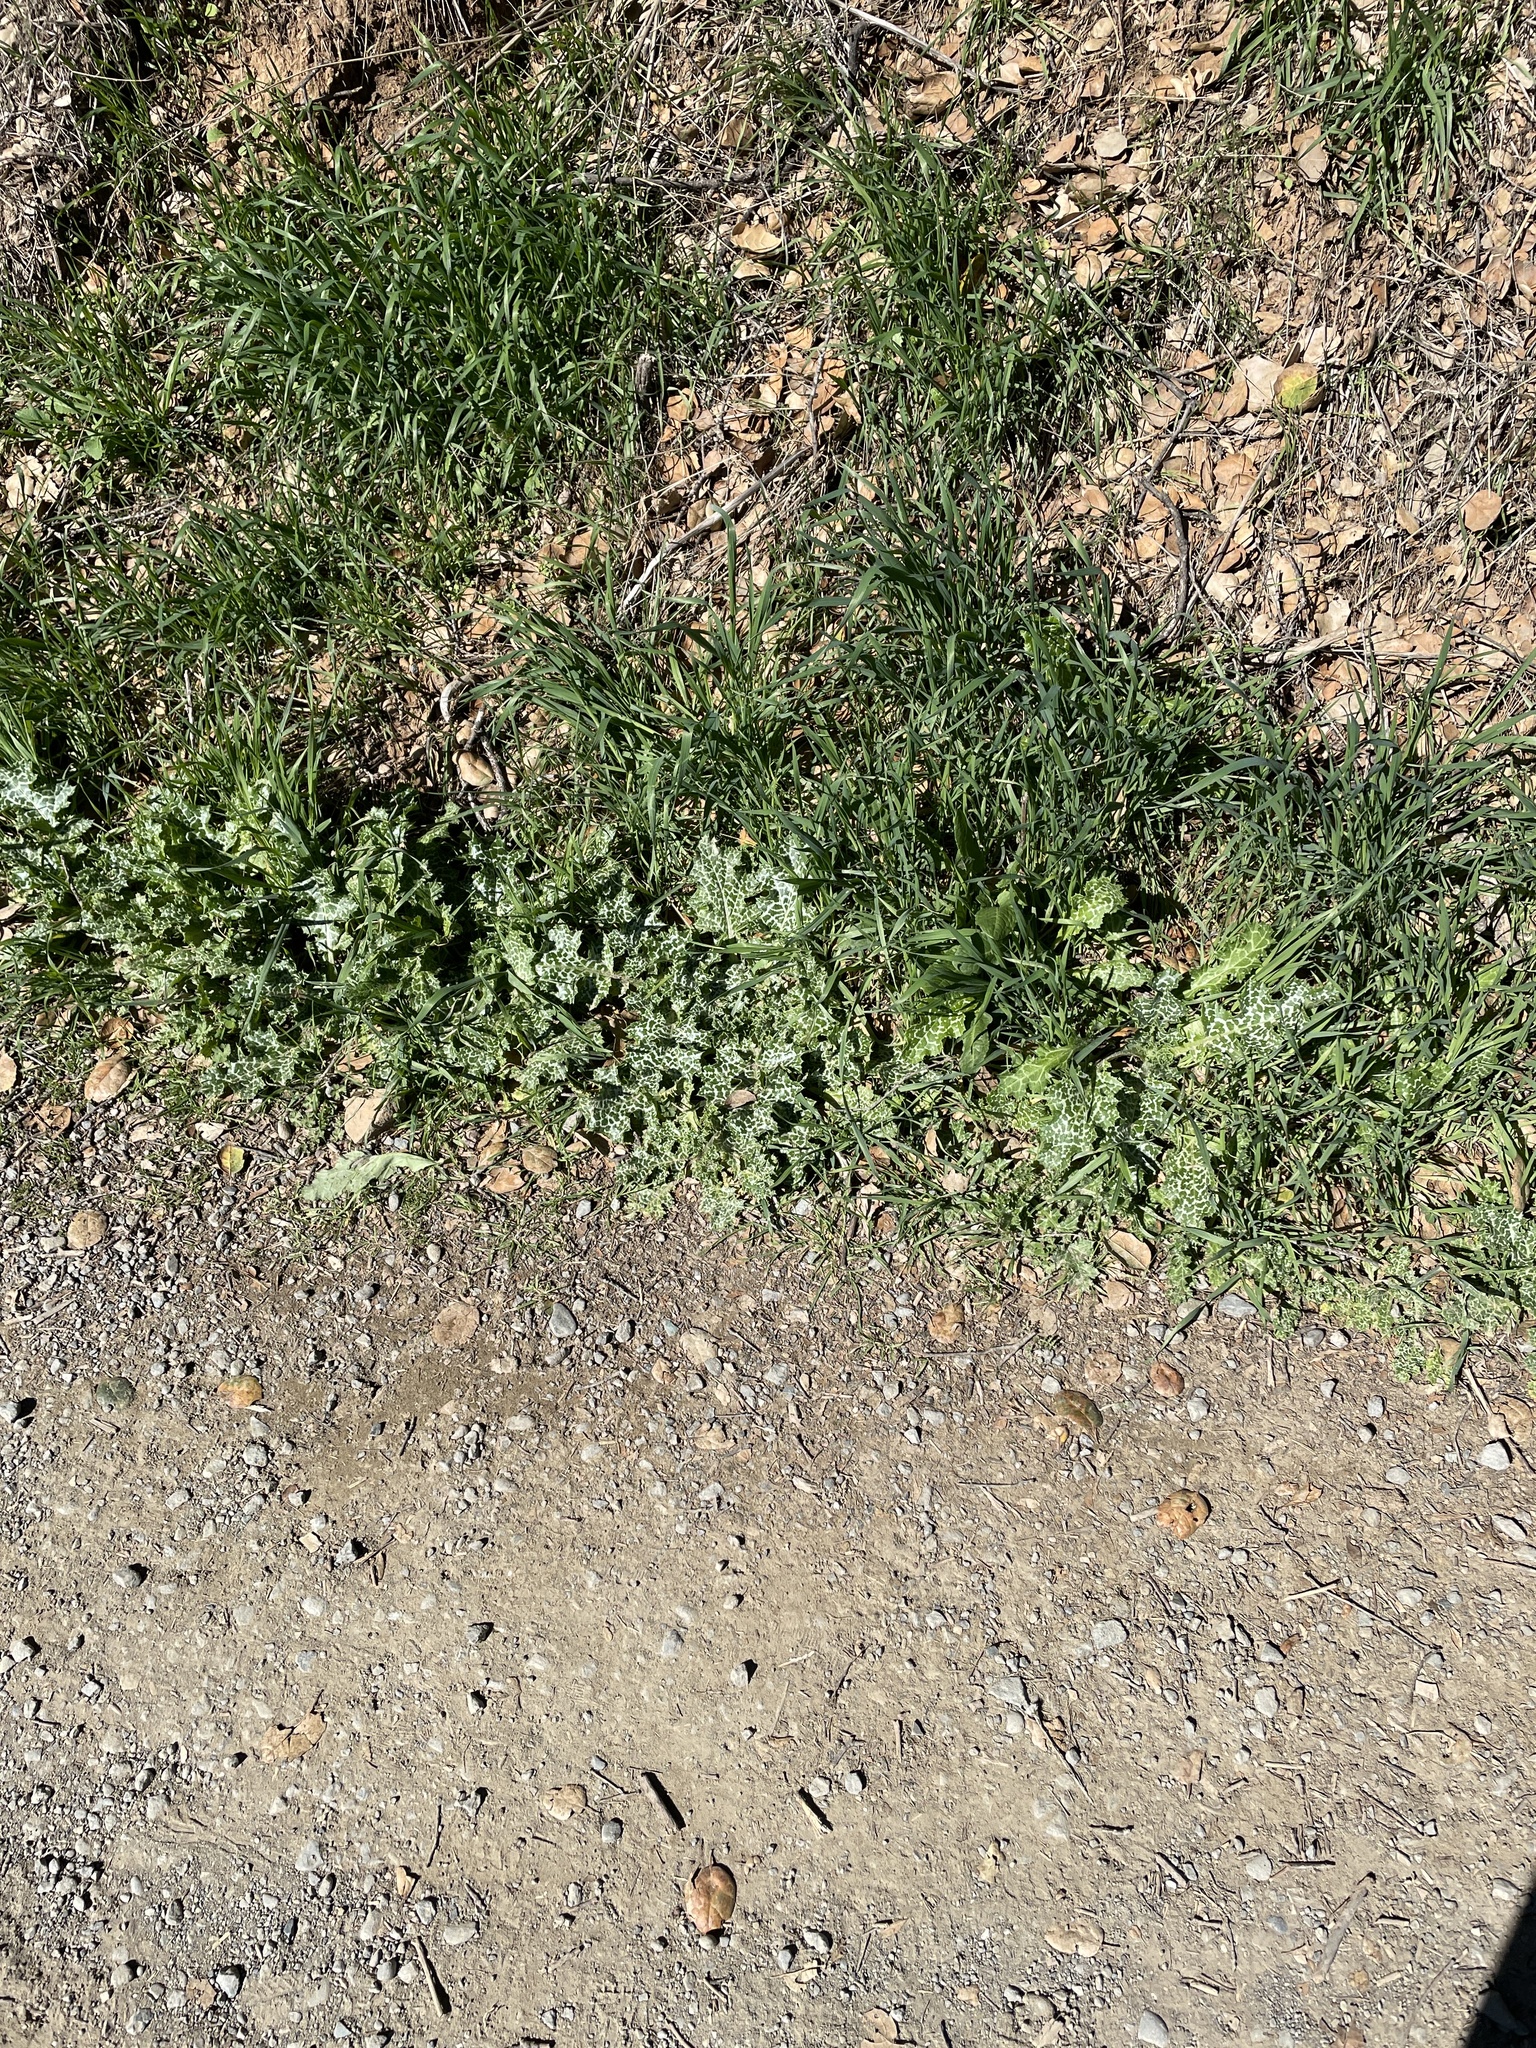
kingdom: Plantae
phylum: Tracheophyta
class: Magnoliopsida
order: Asterales
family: Asteraceae
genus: Silybum
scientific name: Silybum marianum
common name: Milk thistle
